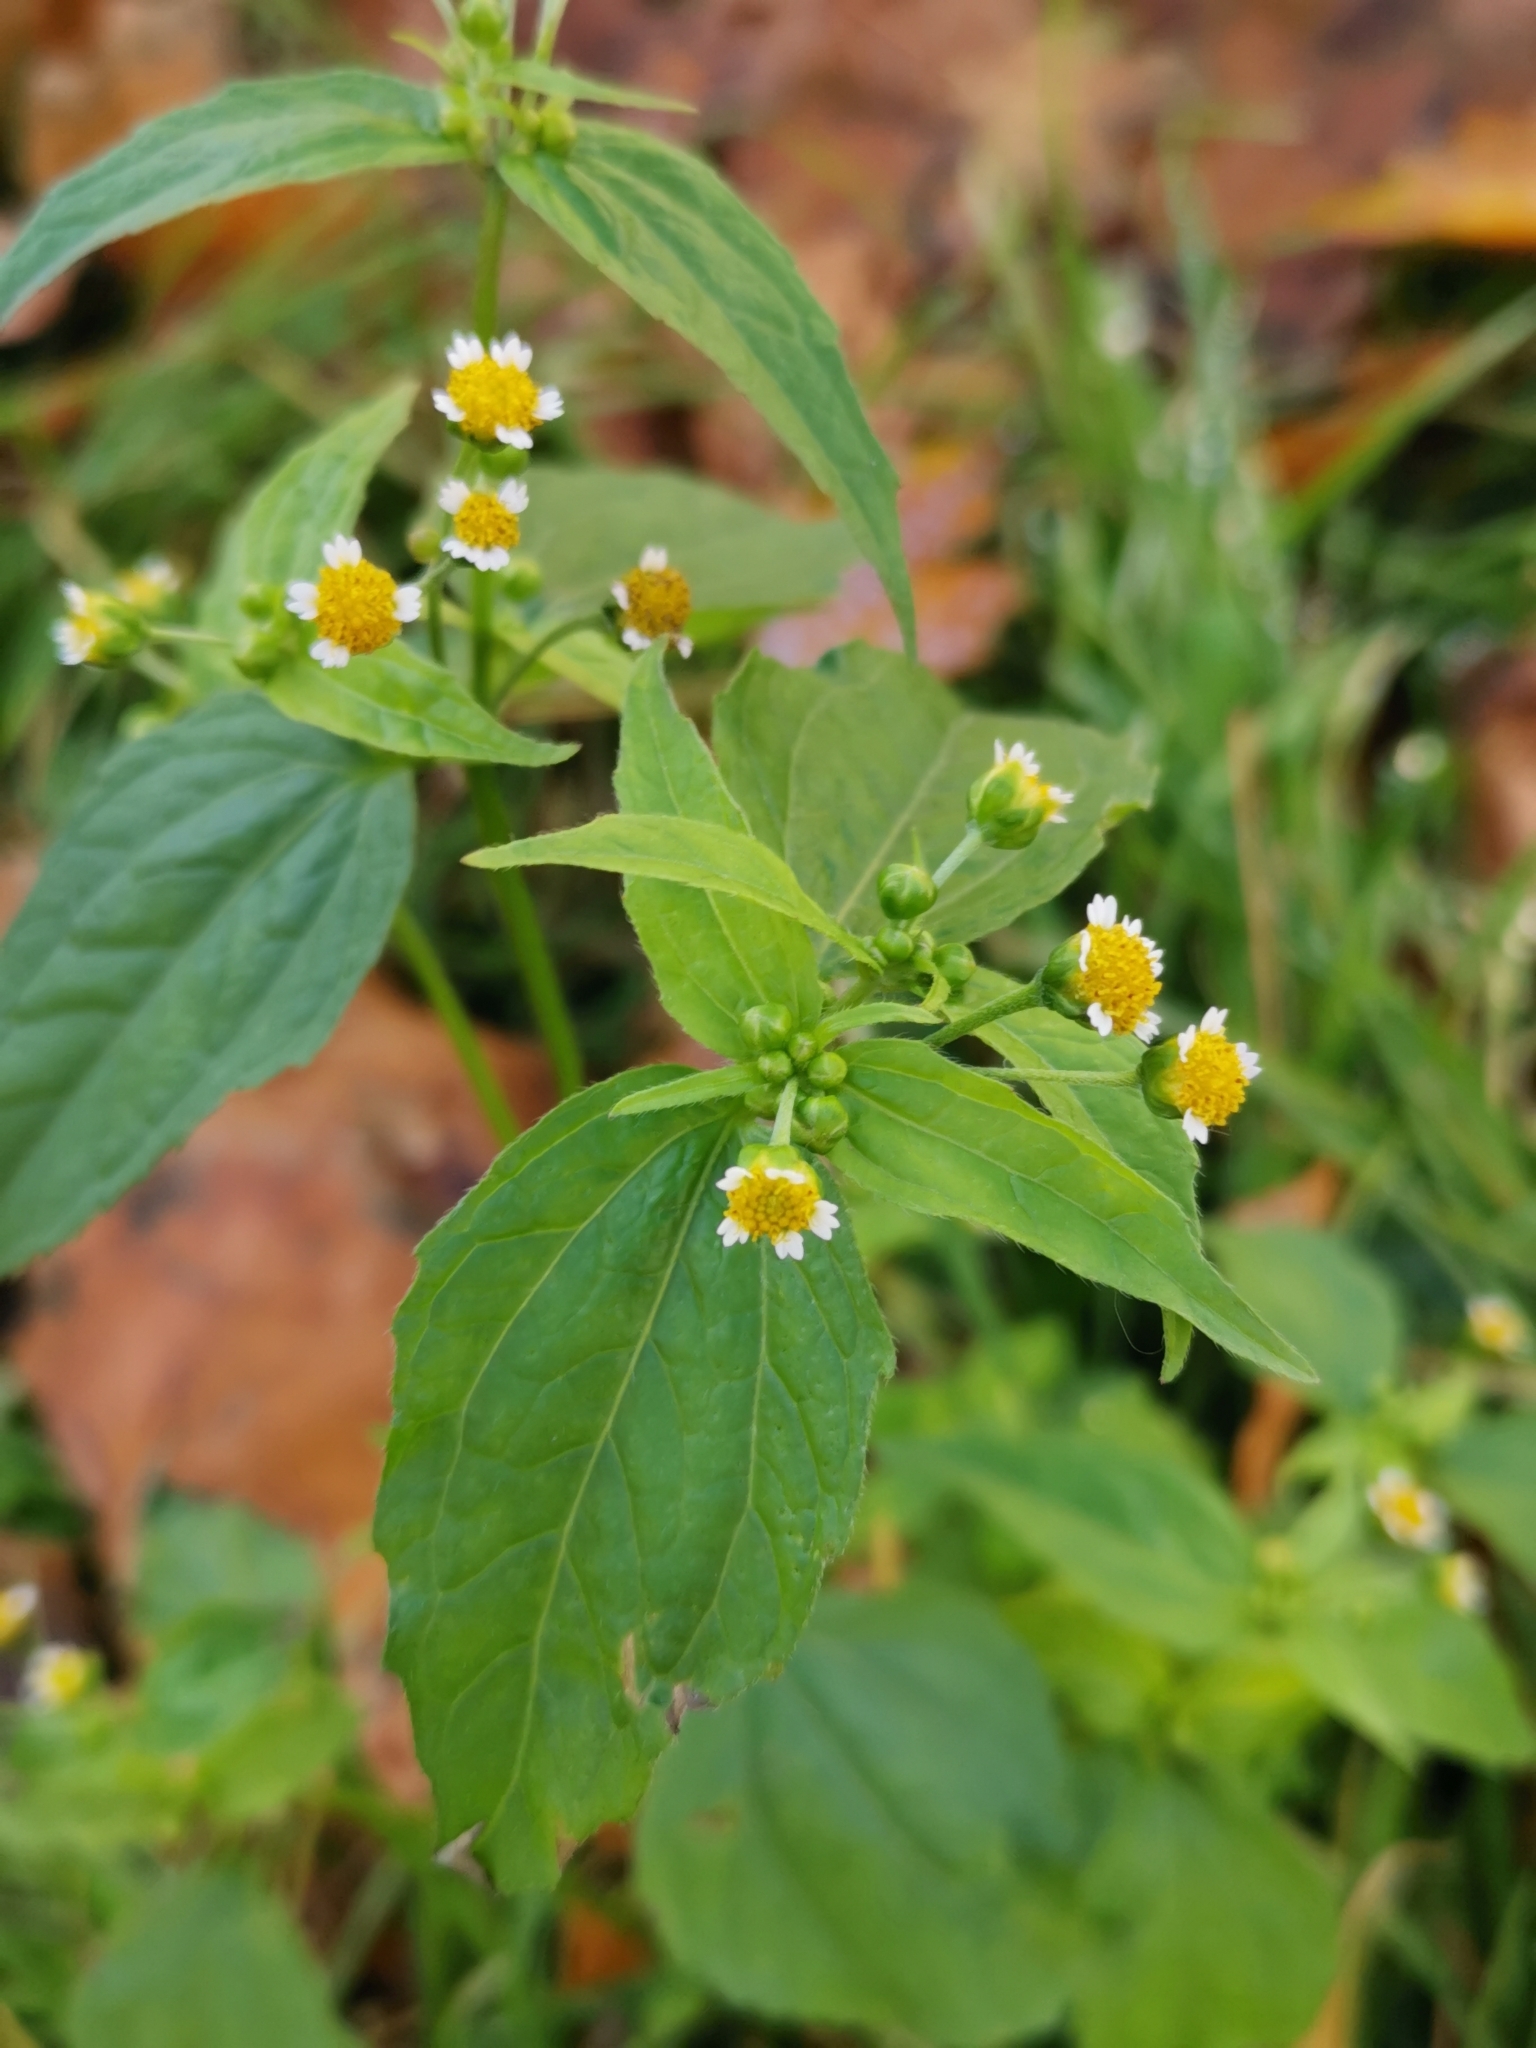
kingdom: Plantae
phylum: Tracheophyta
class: Magnoliopsida
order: Asterales
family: Asteraceae
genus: Galinsoga
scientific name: Galinsoga parviflora
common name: Gallant soldier
